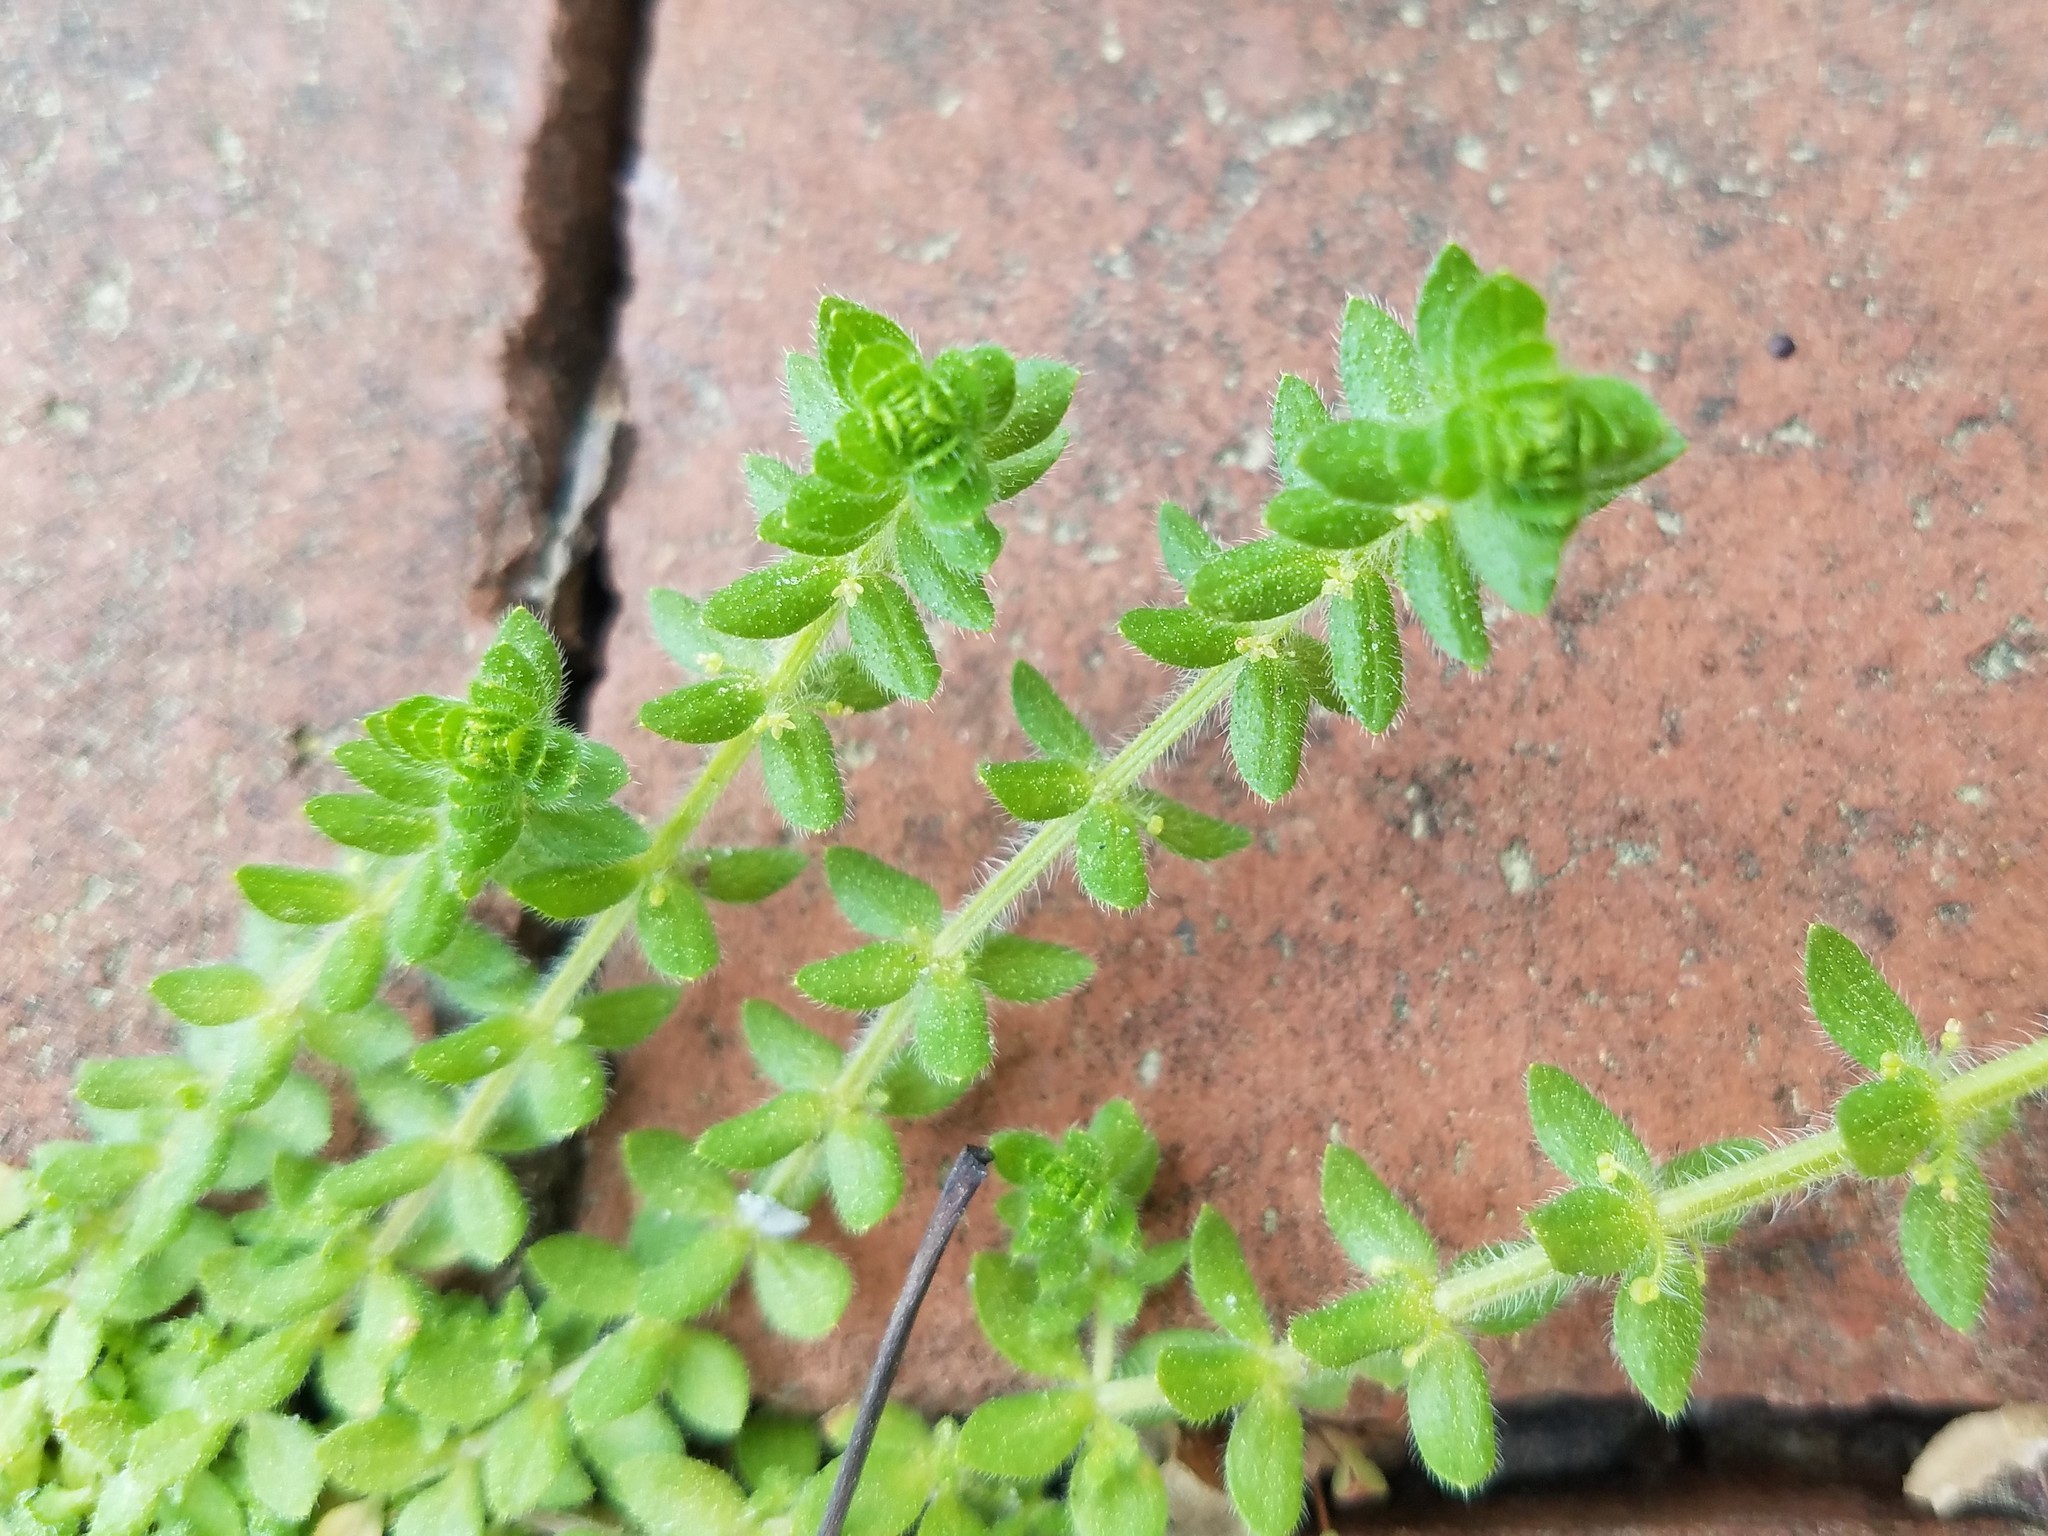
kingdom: Plantae
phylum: Tracheophyta
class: Magnoliopsida
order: Gentianales
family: Rubiaceae
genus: Cruciata
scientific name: Cruciata pedemontana
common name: Piedmont bedstraw
